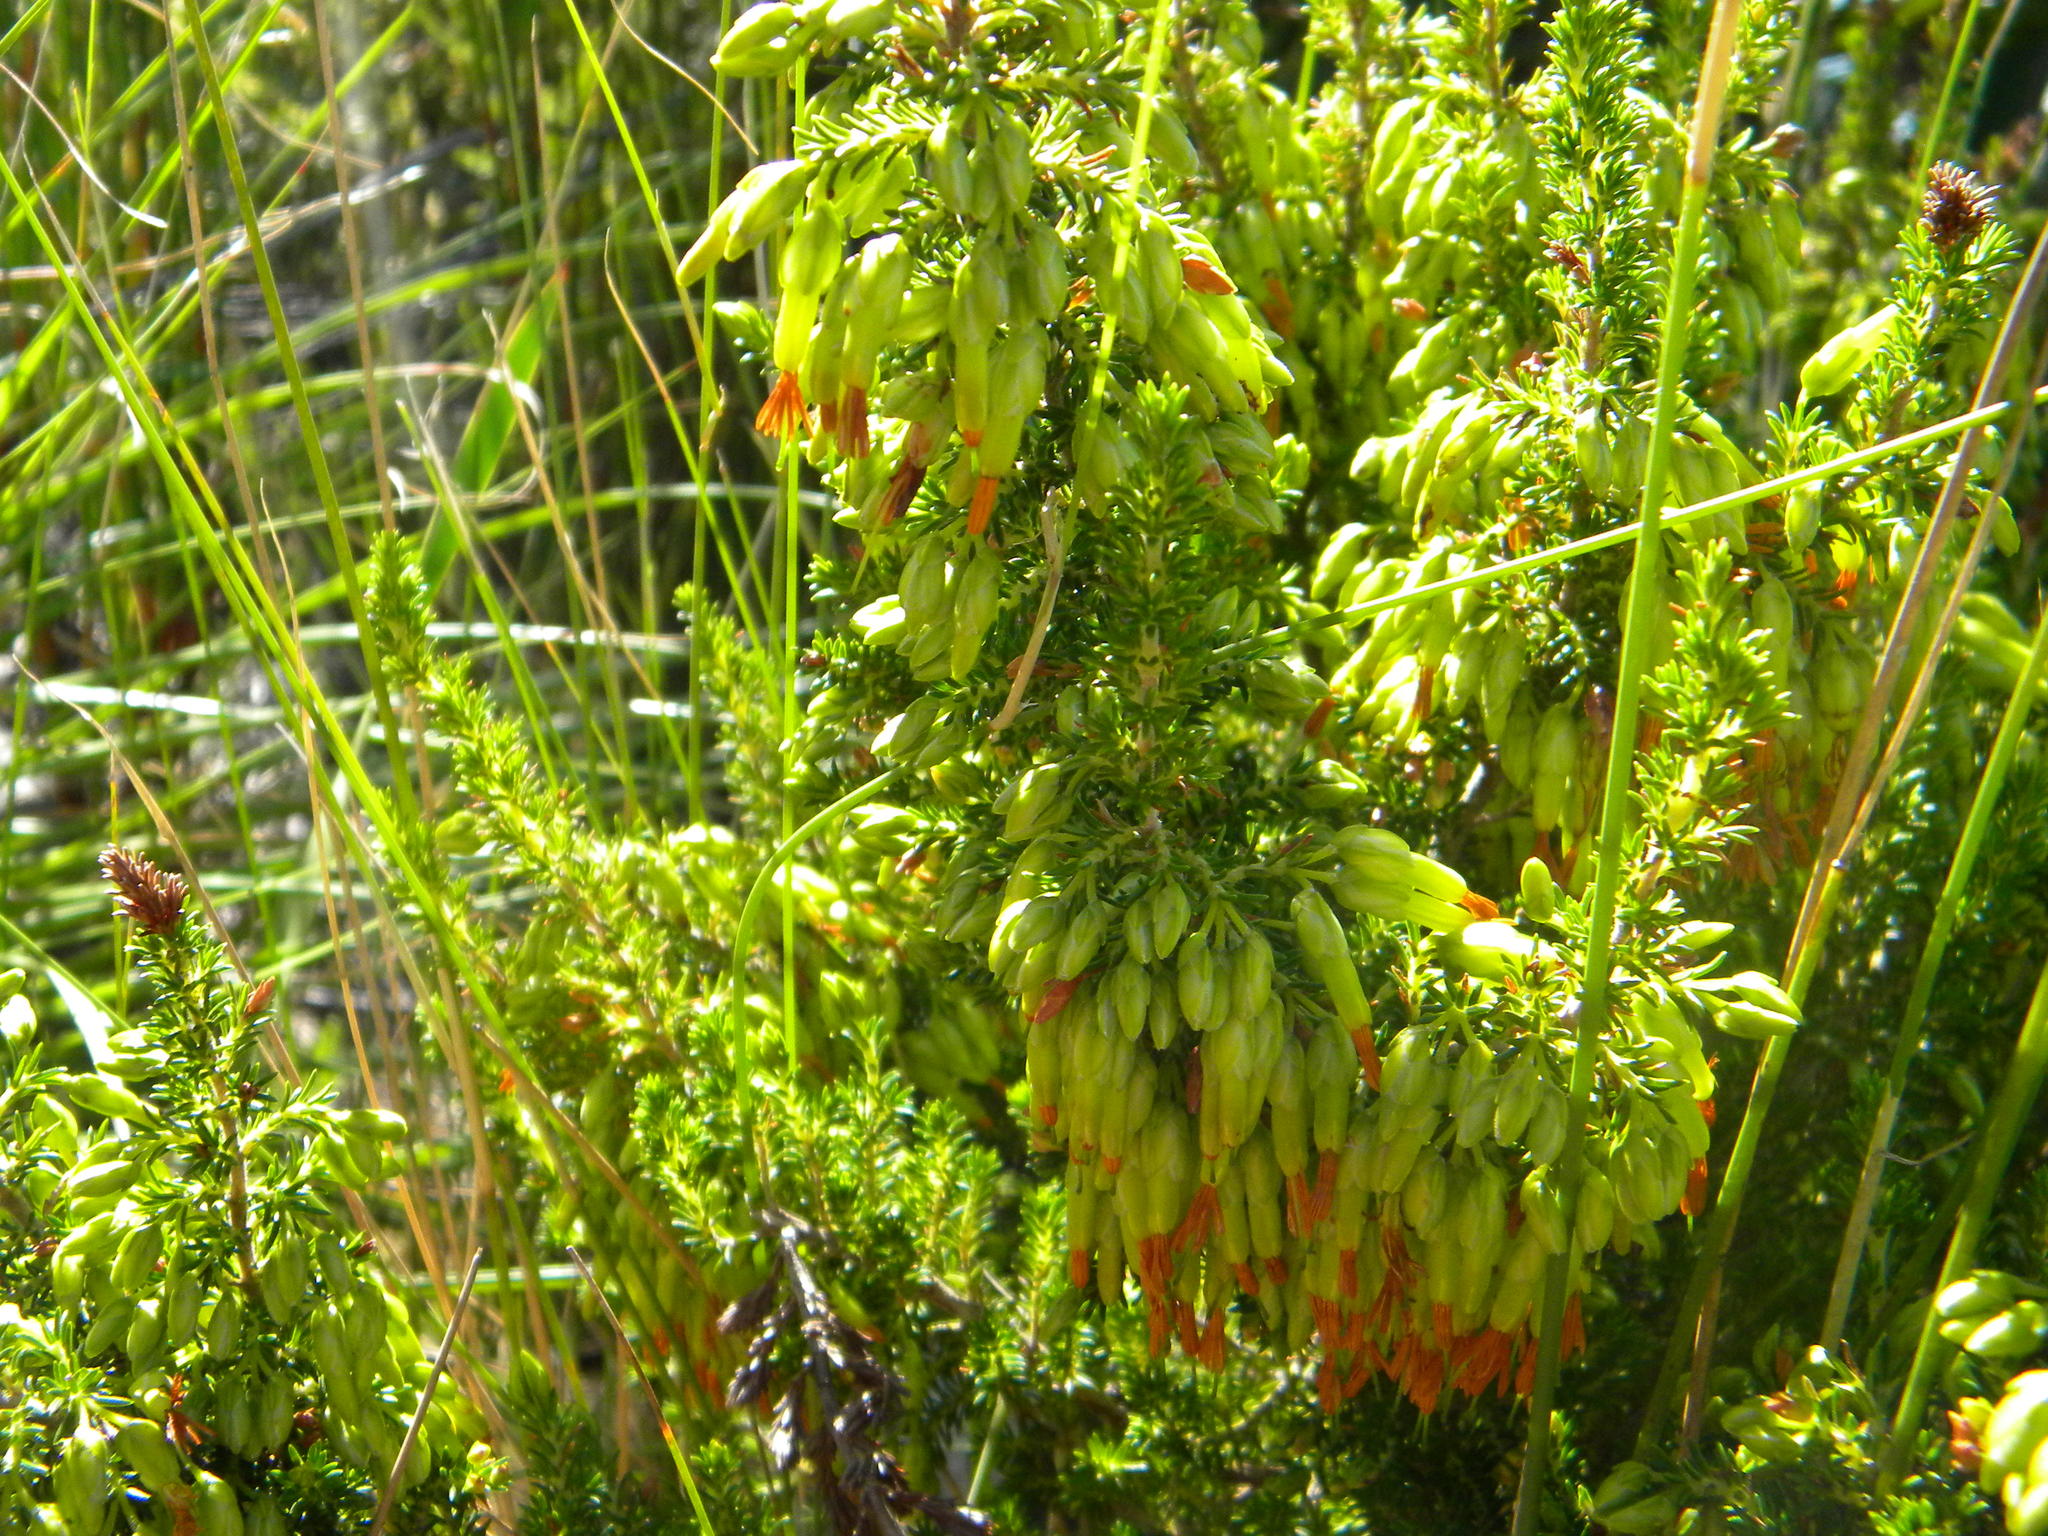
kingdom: Plantae
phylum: Tracheophyta
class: Magnoliopsida
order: Ericales
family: Ericaceae
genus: Erica
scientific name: Erica coccinea
